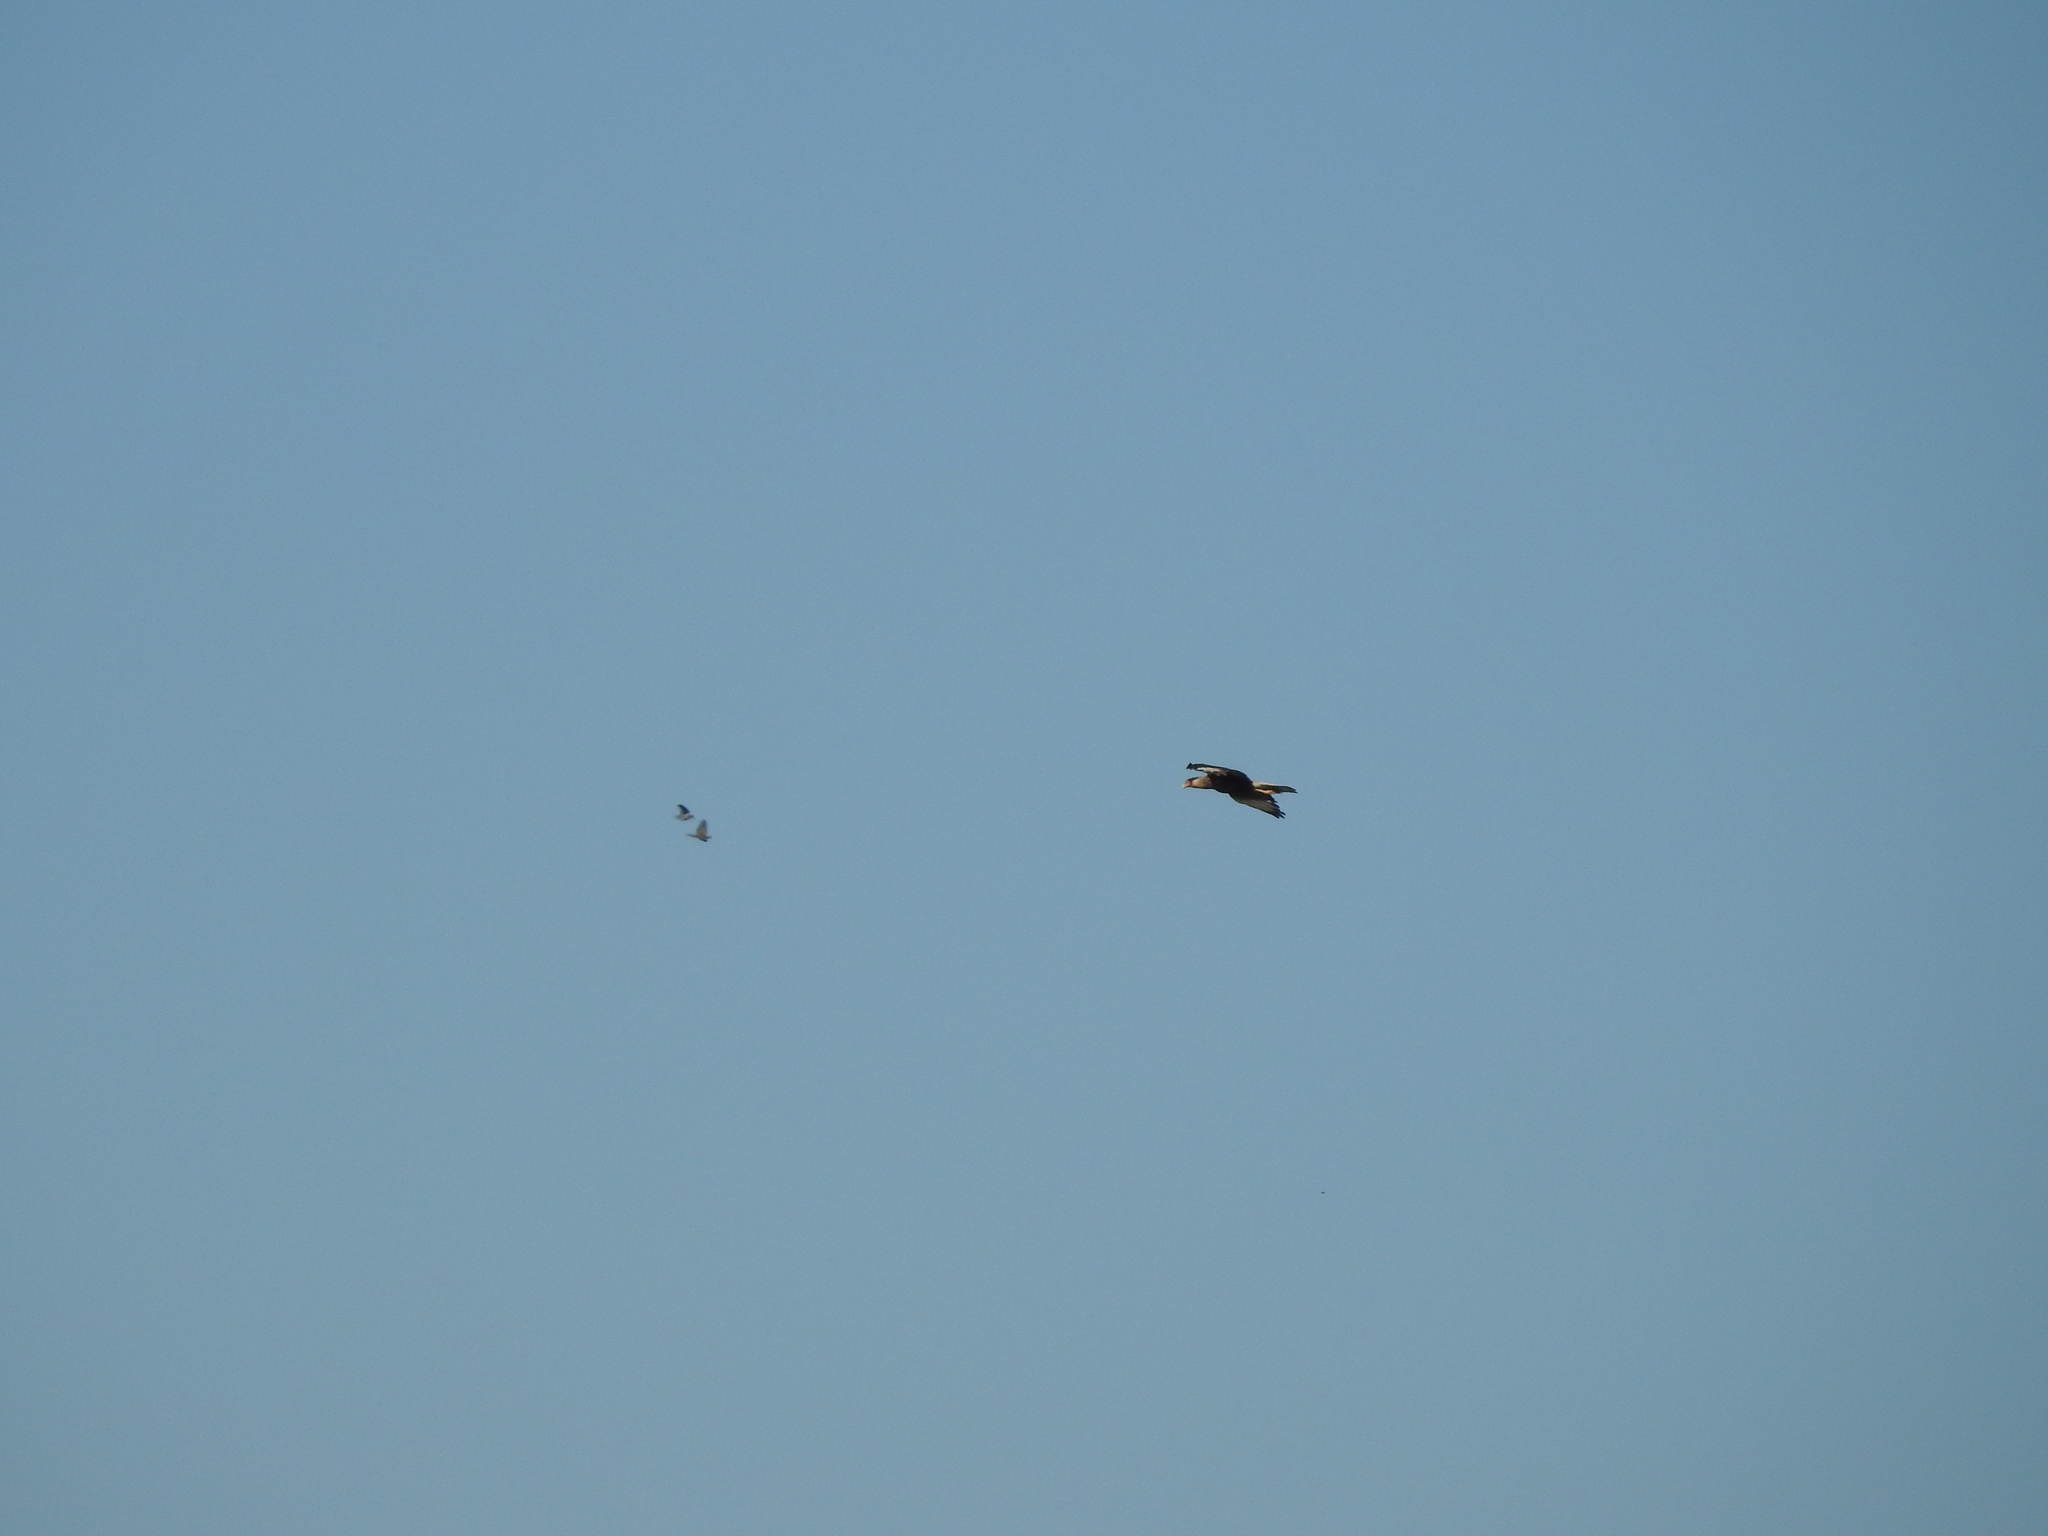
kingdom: Animalia
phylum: Chordata
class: Aves
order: Falconiformes
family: Falconidae
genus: Caracara
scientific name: Caracara plancus
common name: Southern caracara
